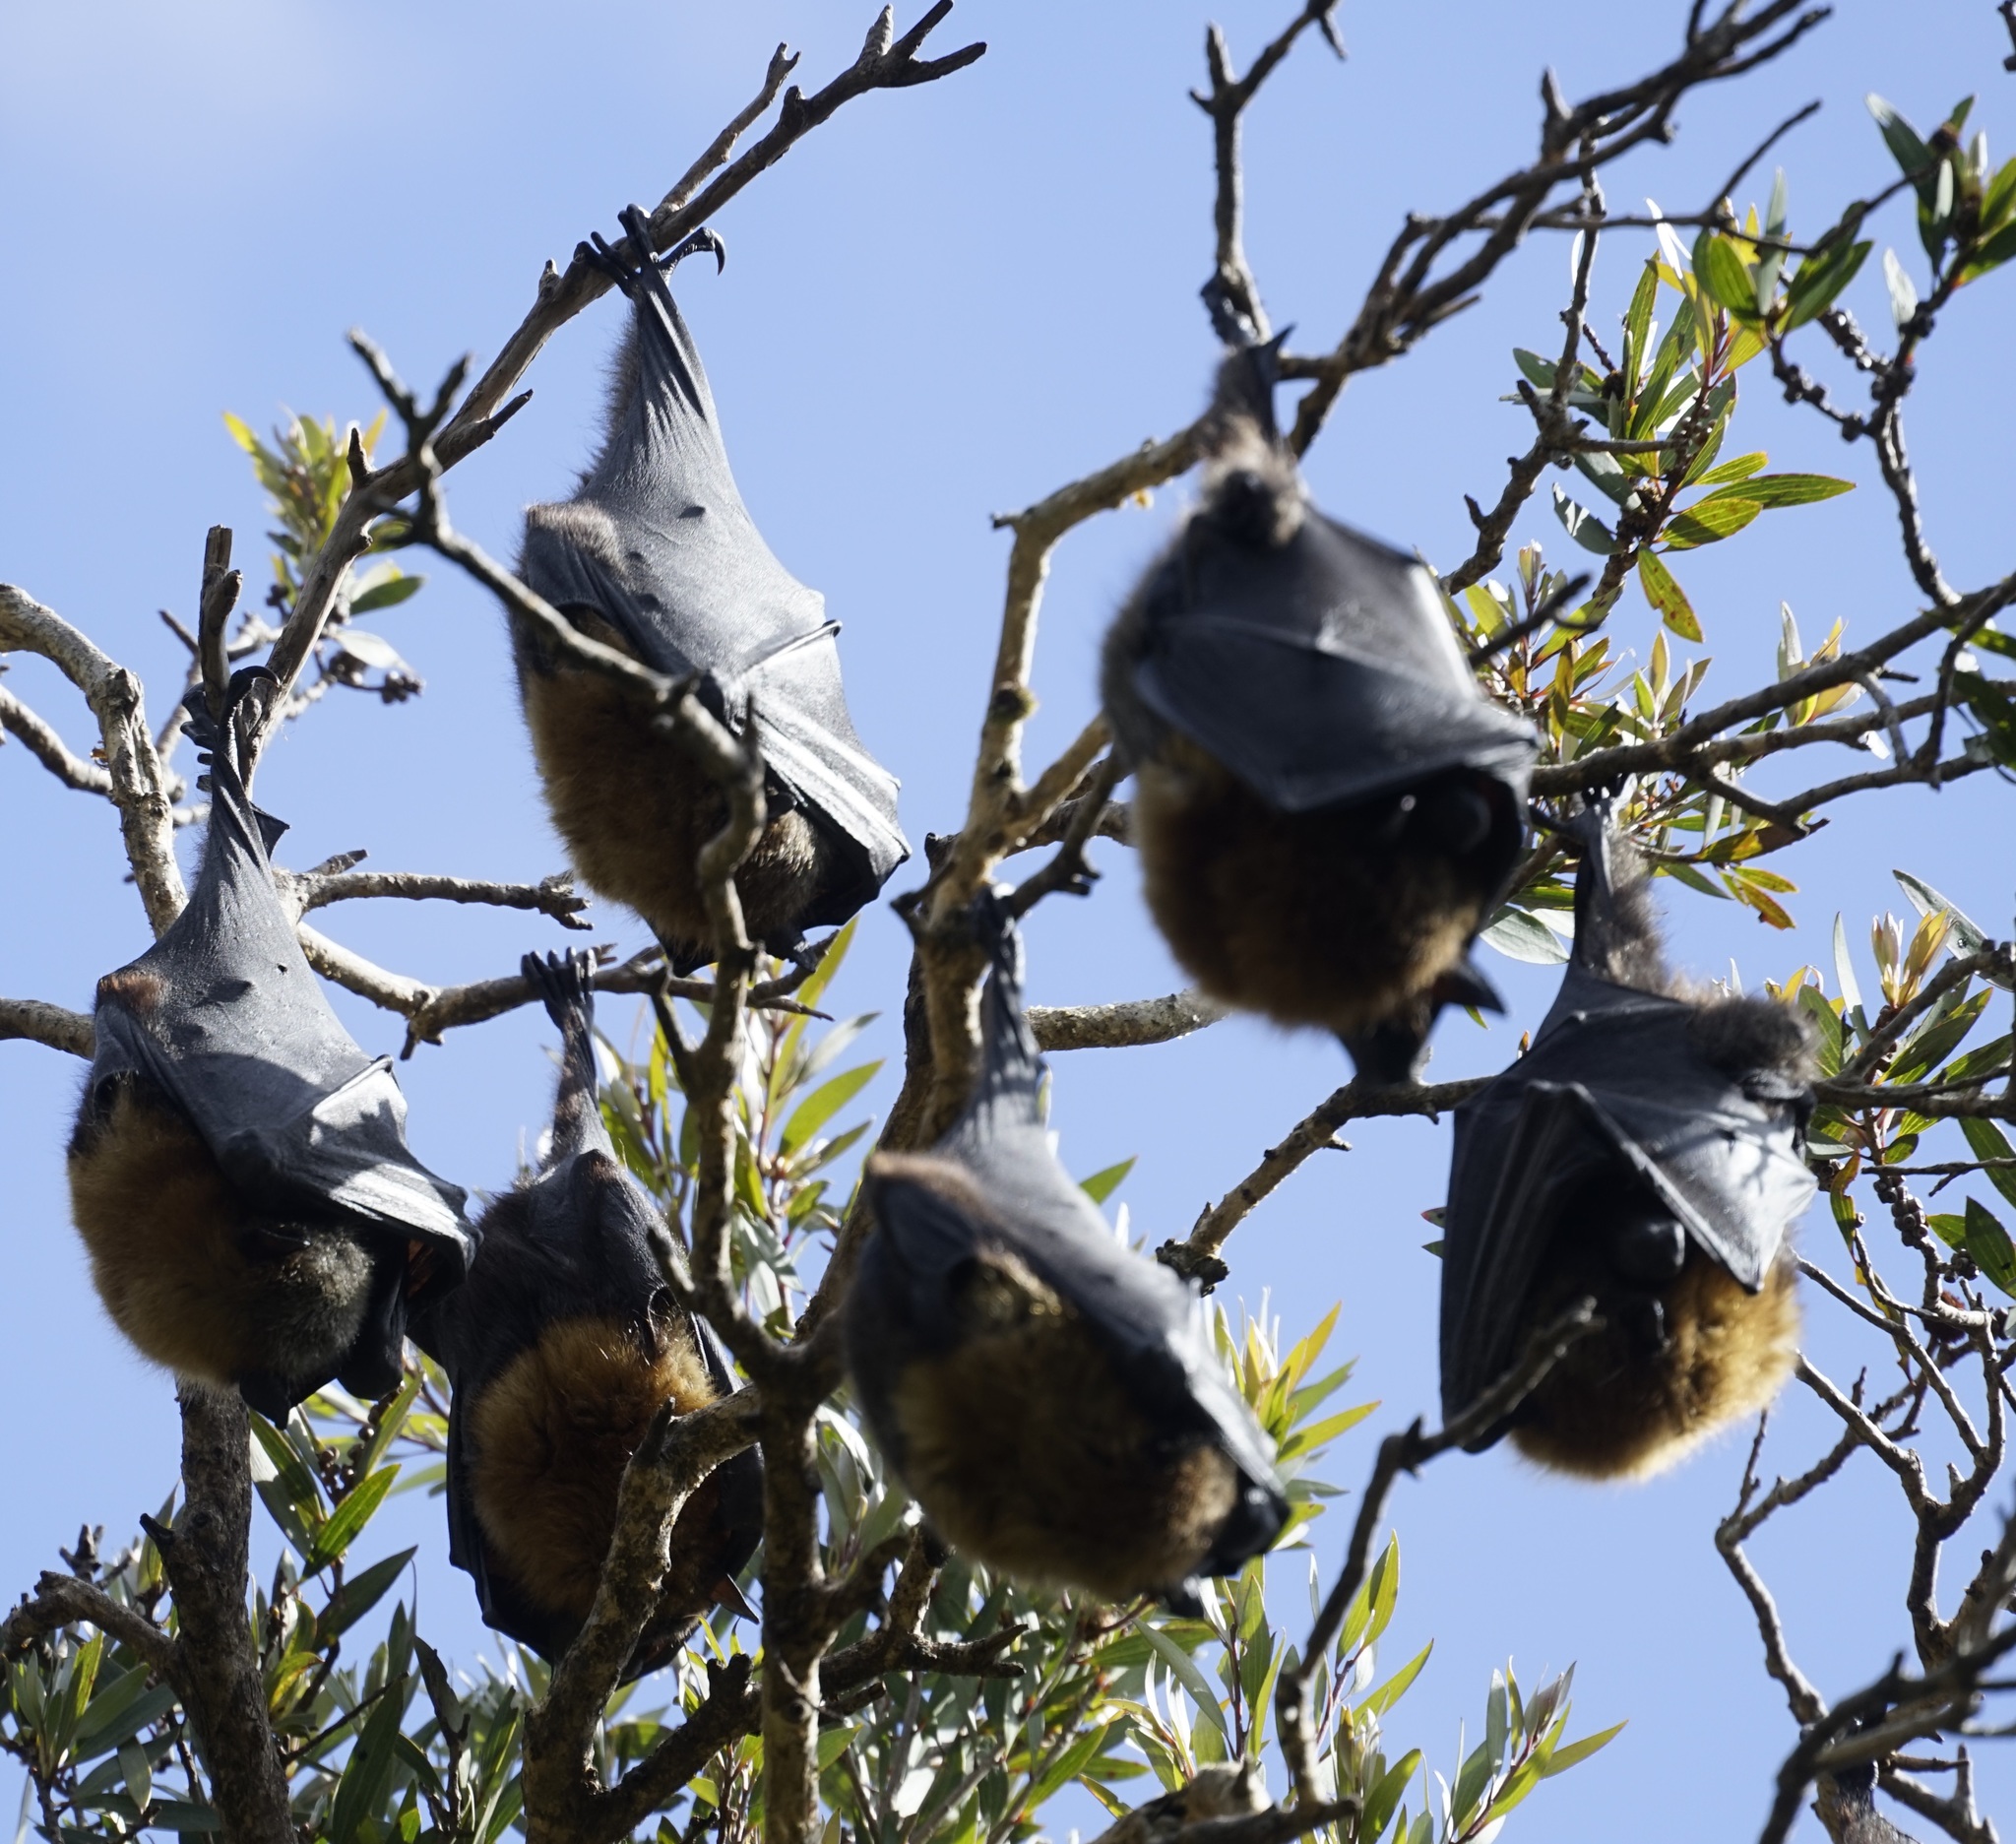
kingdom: Animalia
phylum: Chordata
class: Mammalia
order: Chiroptera
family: Pteropodidae
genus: Pteropus
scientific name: Pteropus poliocephalus
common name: Gray-headed flying fox
